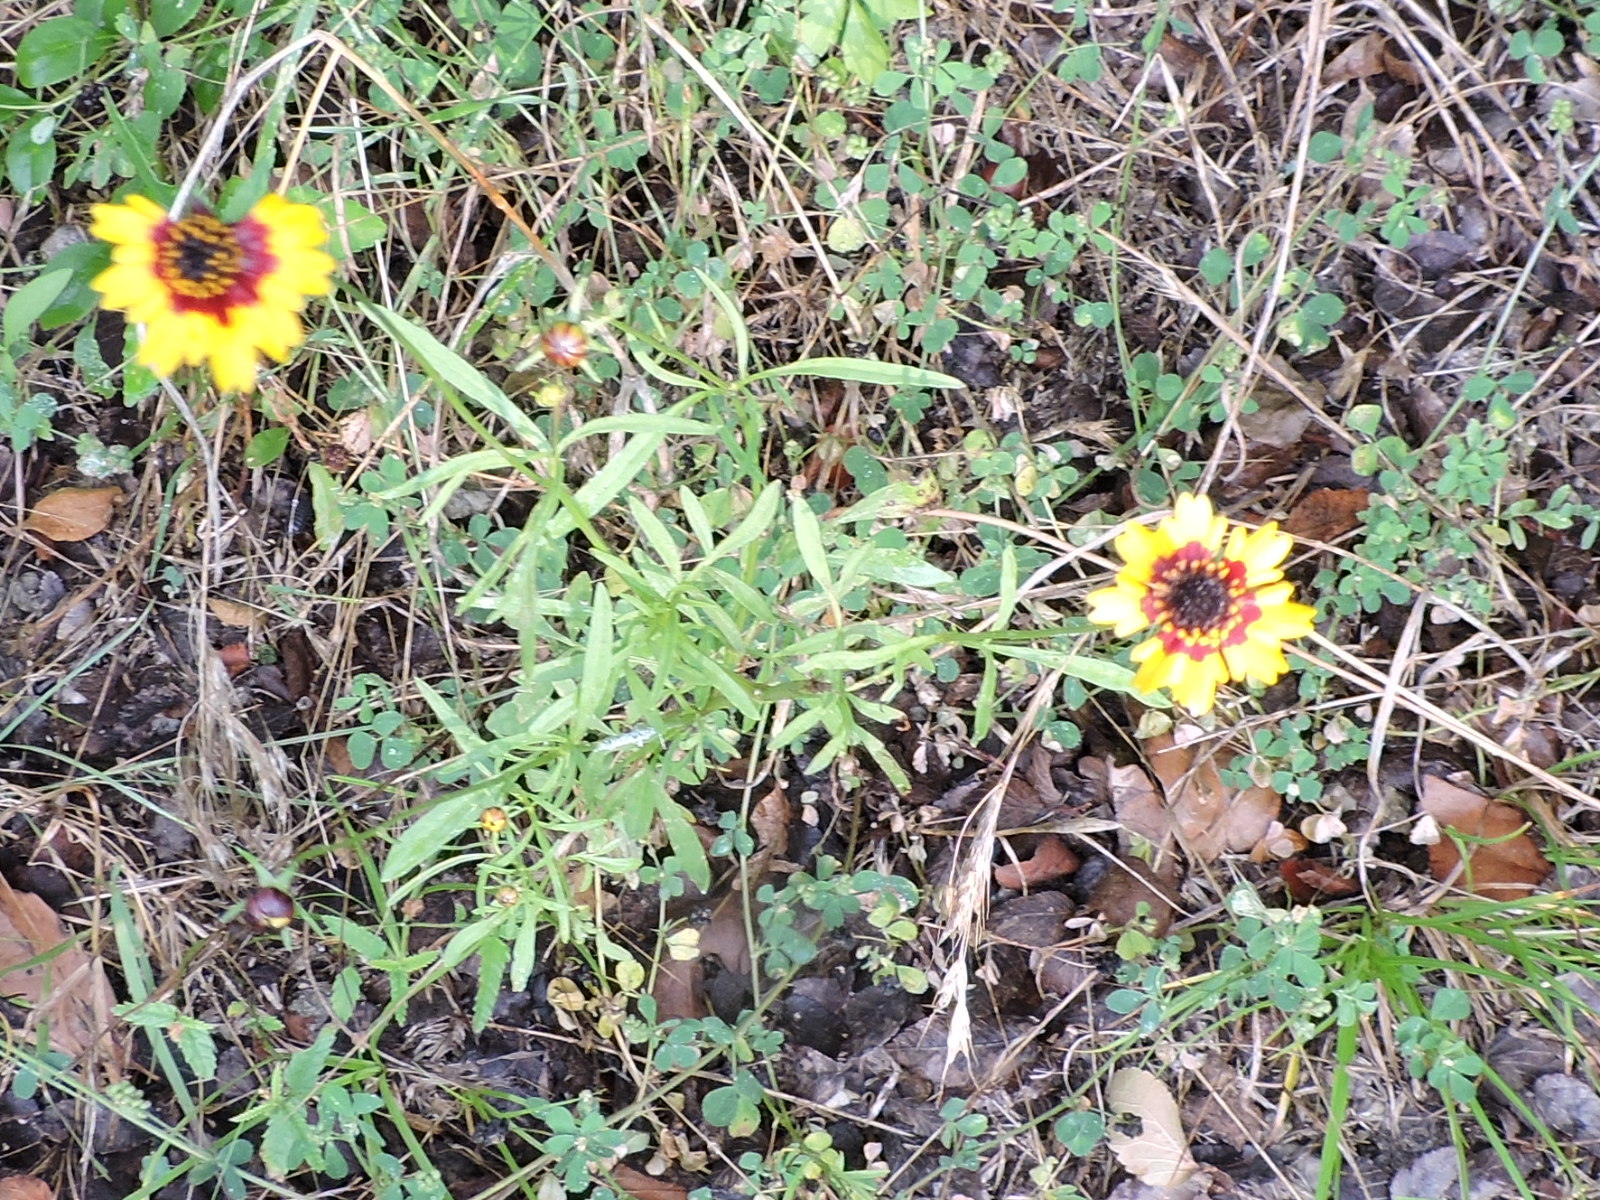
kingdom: Plantae
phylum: Tracheophyta
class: Magnoliopsida
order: Asterales
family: Asteraceae
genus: Coreopsis
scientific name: Coreopsis basalis
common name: Golden-mane coreopsis
